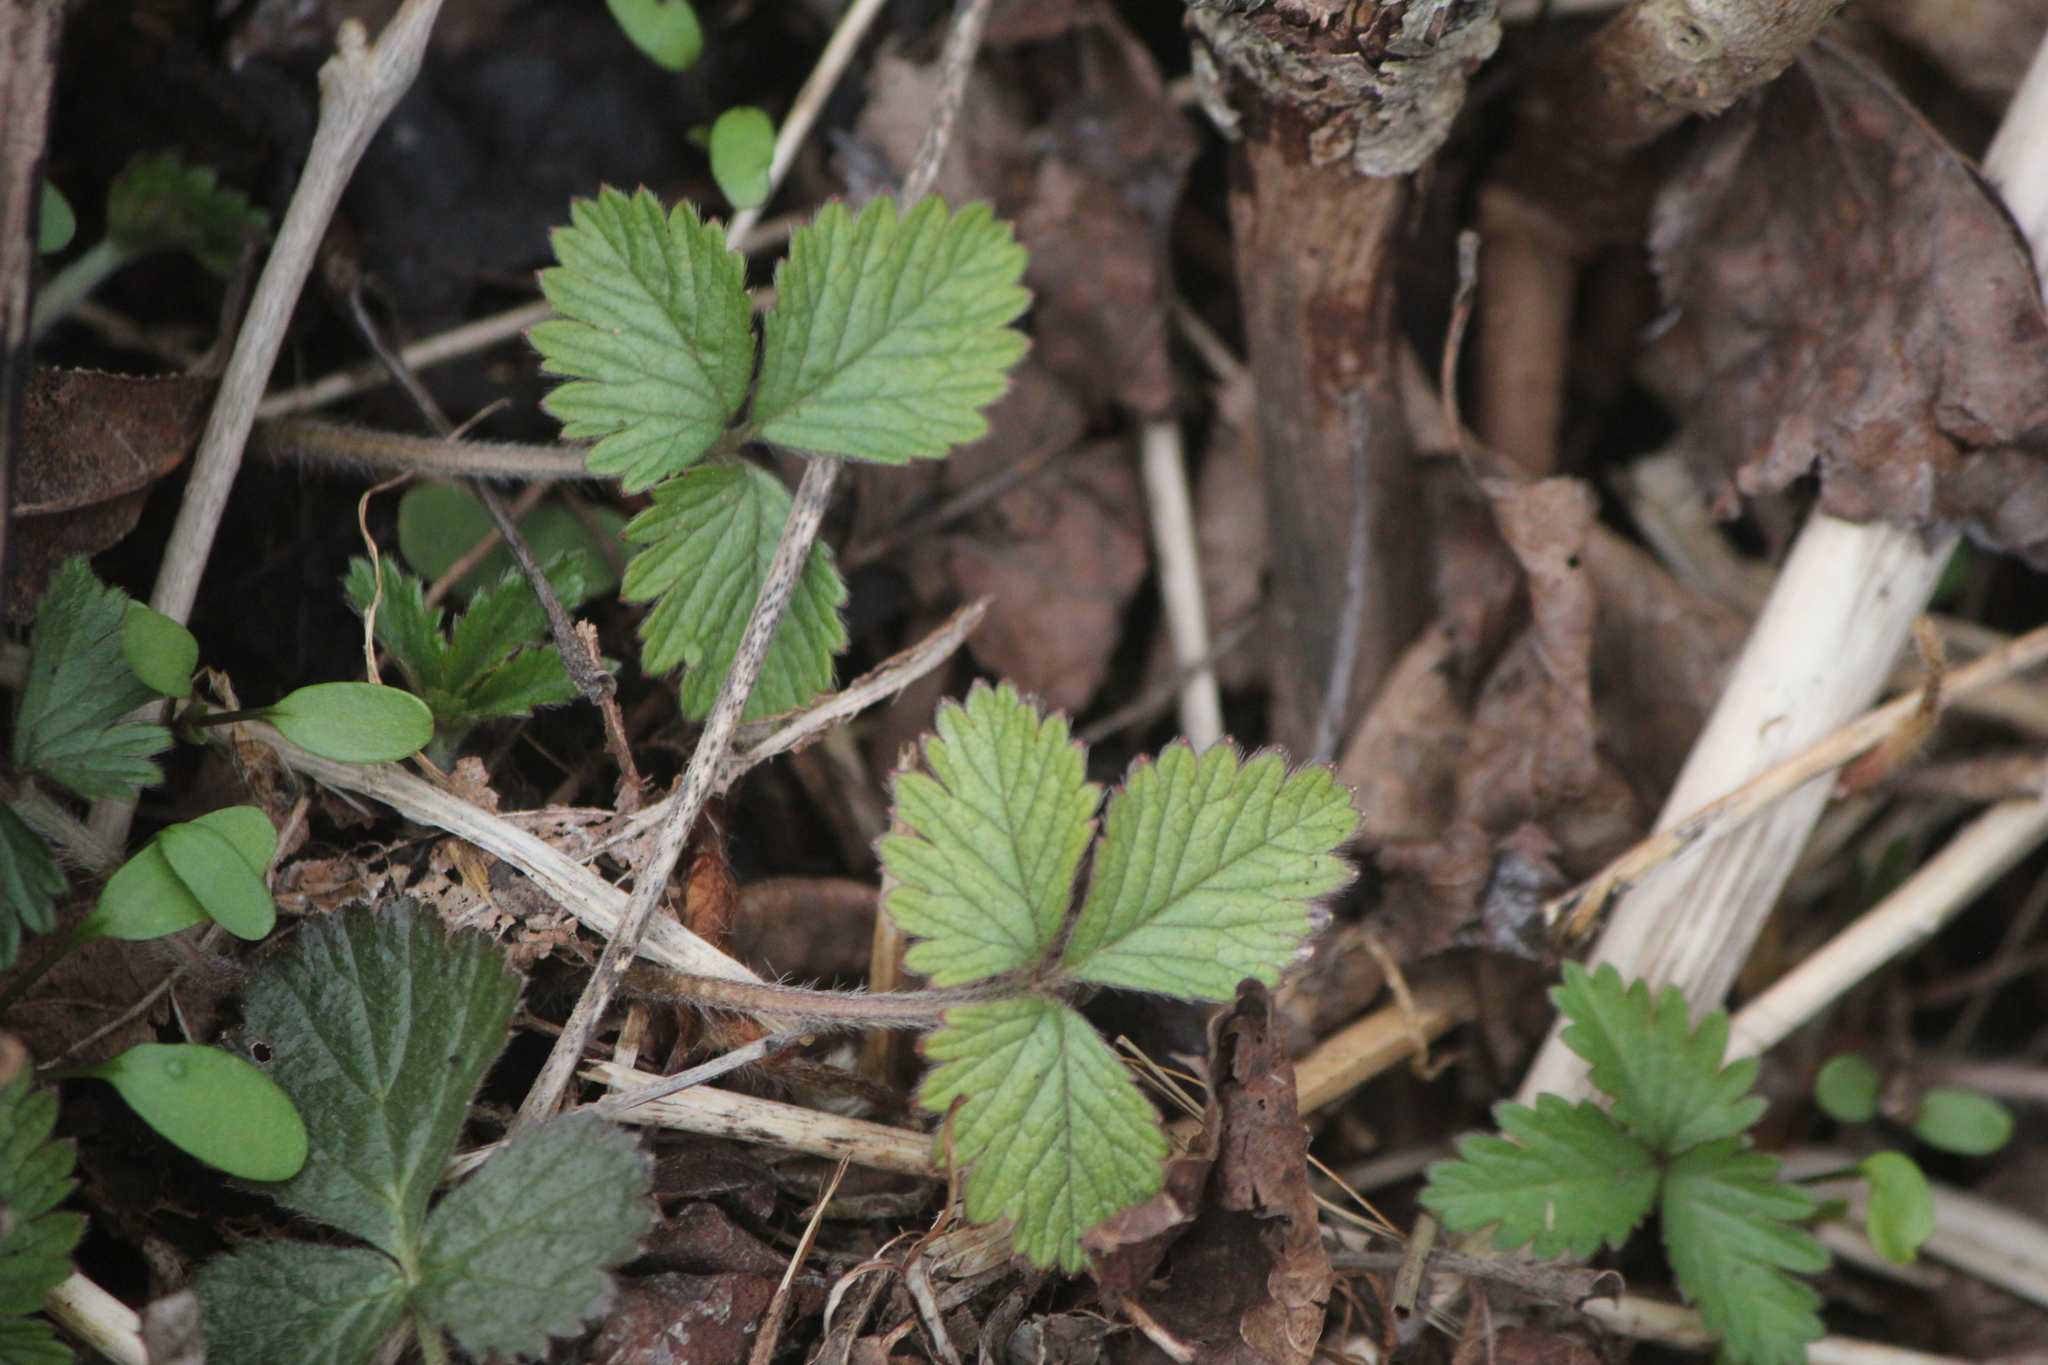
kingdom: Plantae
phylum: Tracheophyta
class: Magnoliopsida
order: Rosales
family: Rosaceae
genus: Fragaria
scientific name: Fragaria vesca
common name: Wild strawberry
